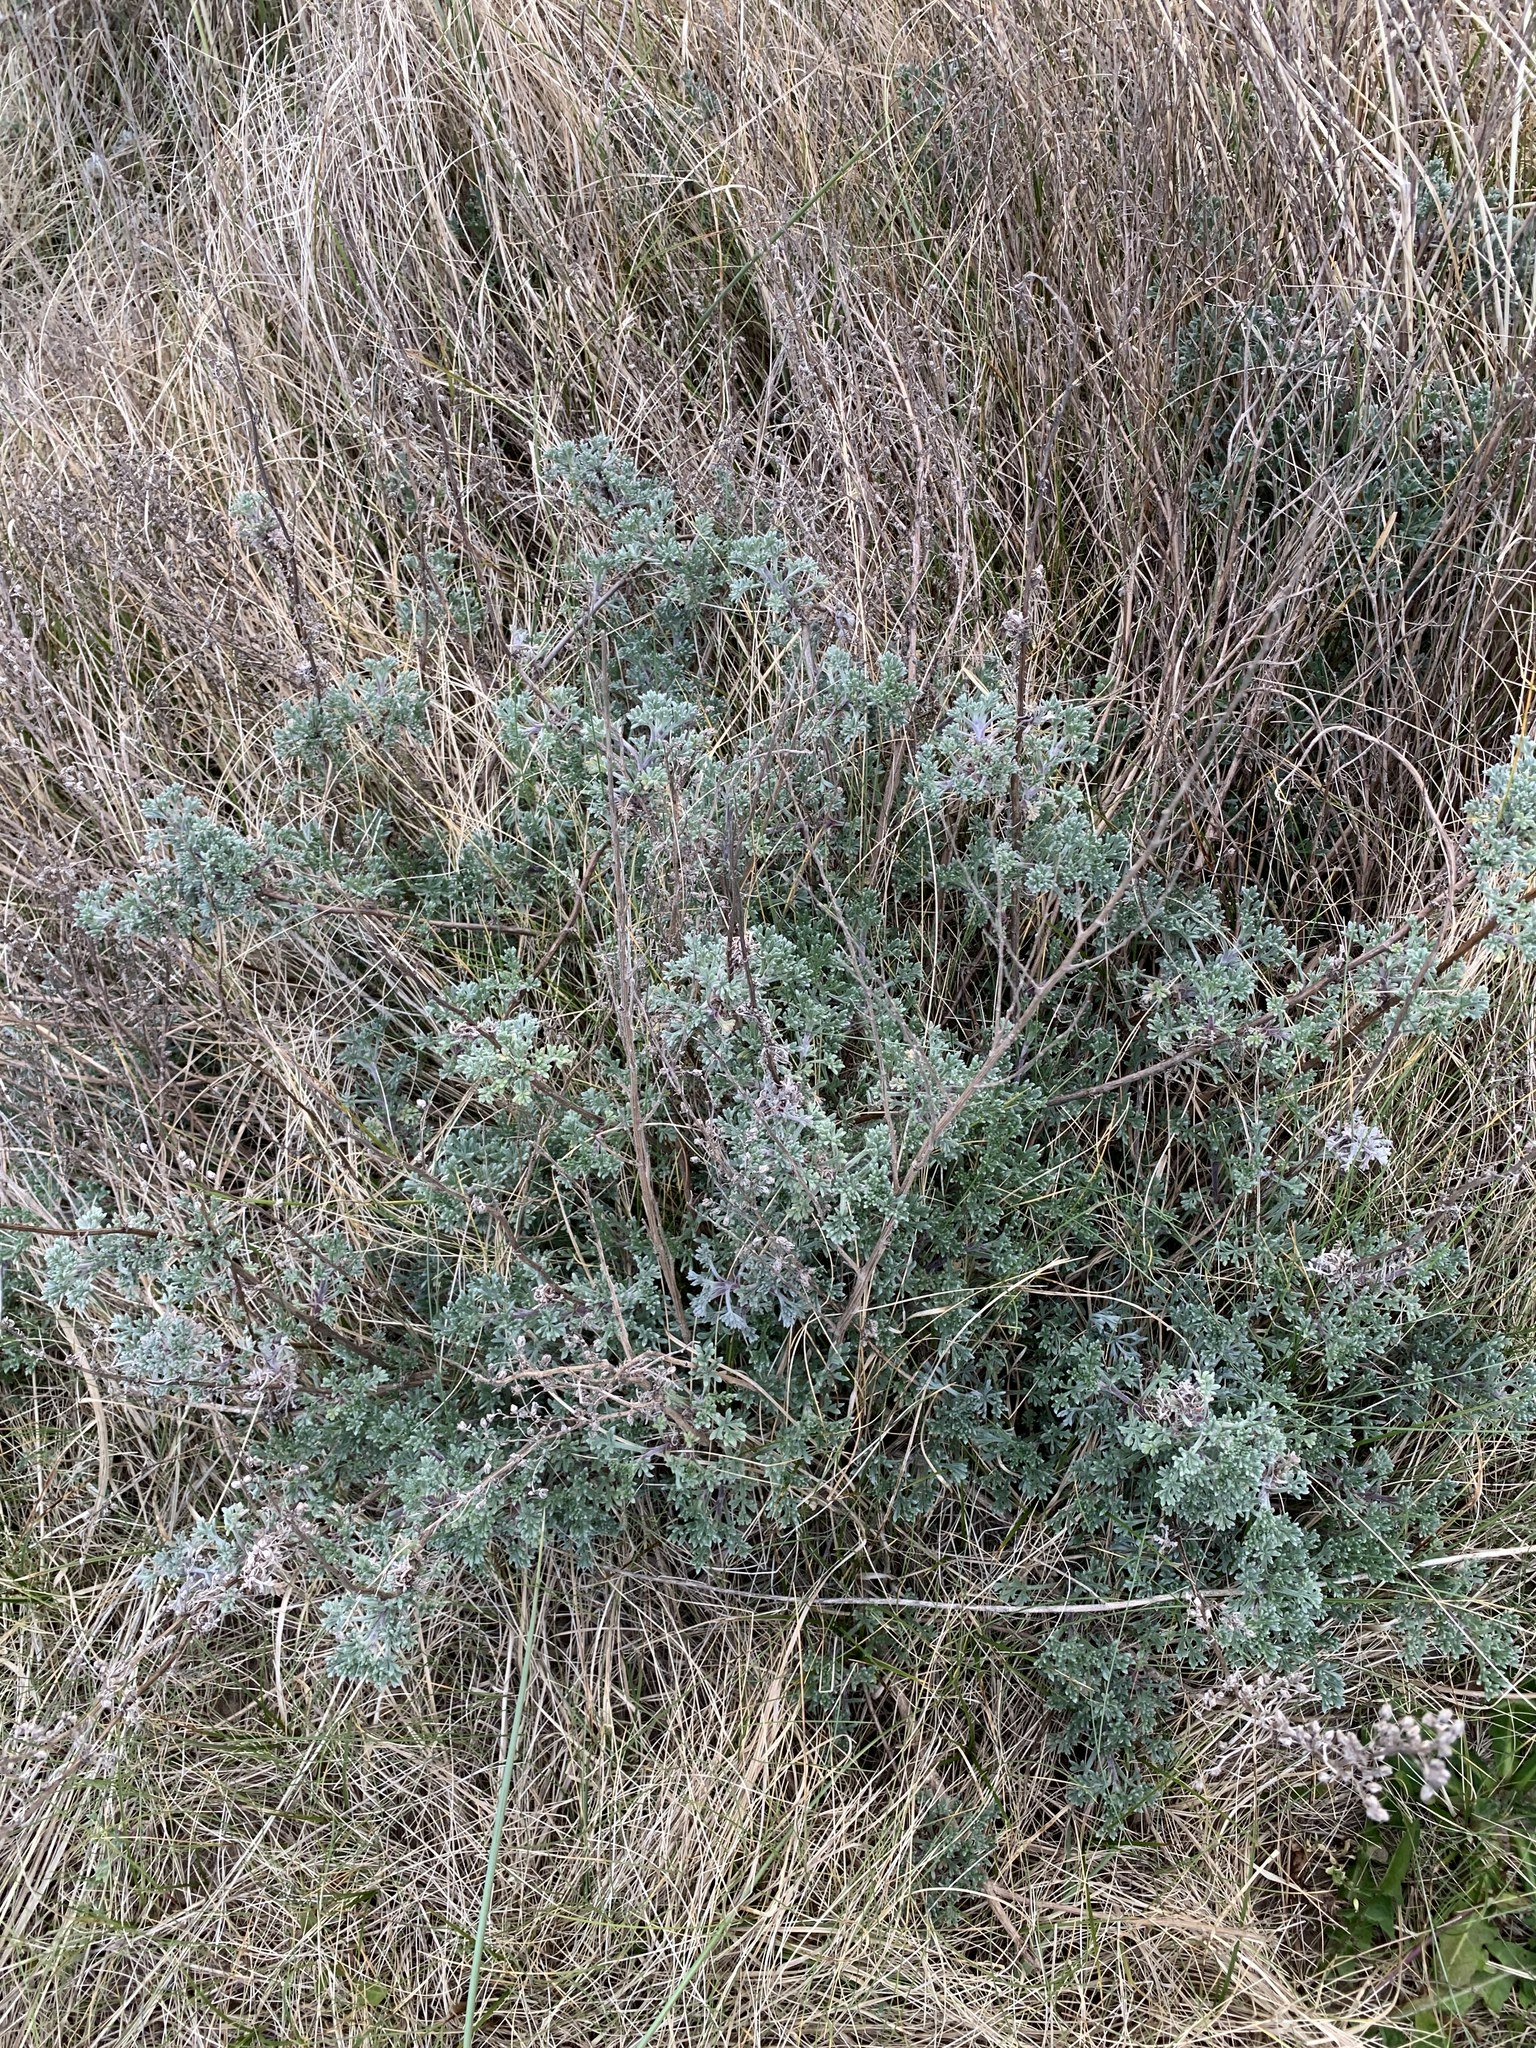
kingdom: Plantae
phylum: Tracheophyta
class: Magnoliopsida
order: Asterales
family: Asteraceae
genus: Artemisia
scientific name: Artemisia crithmifolia
